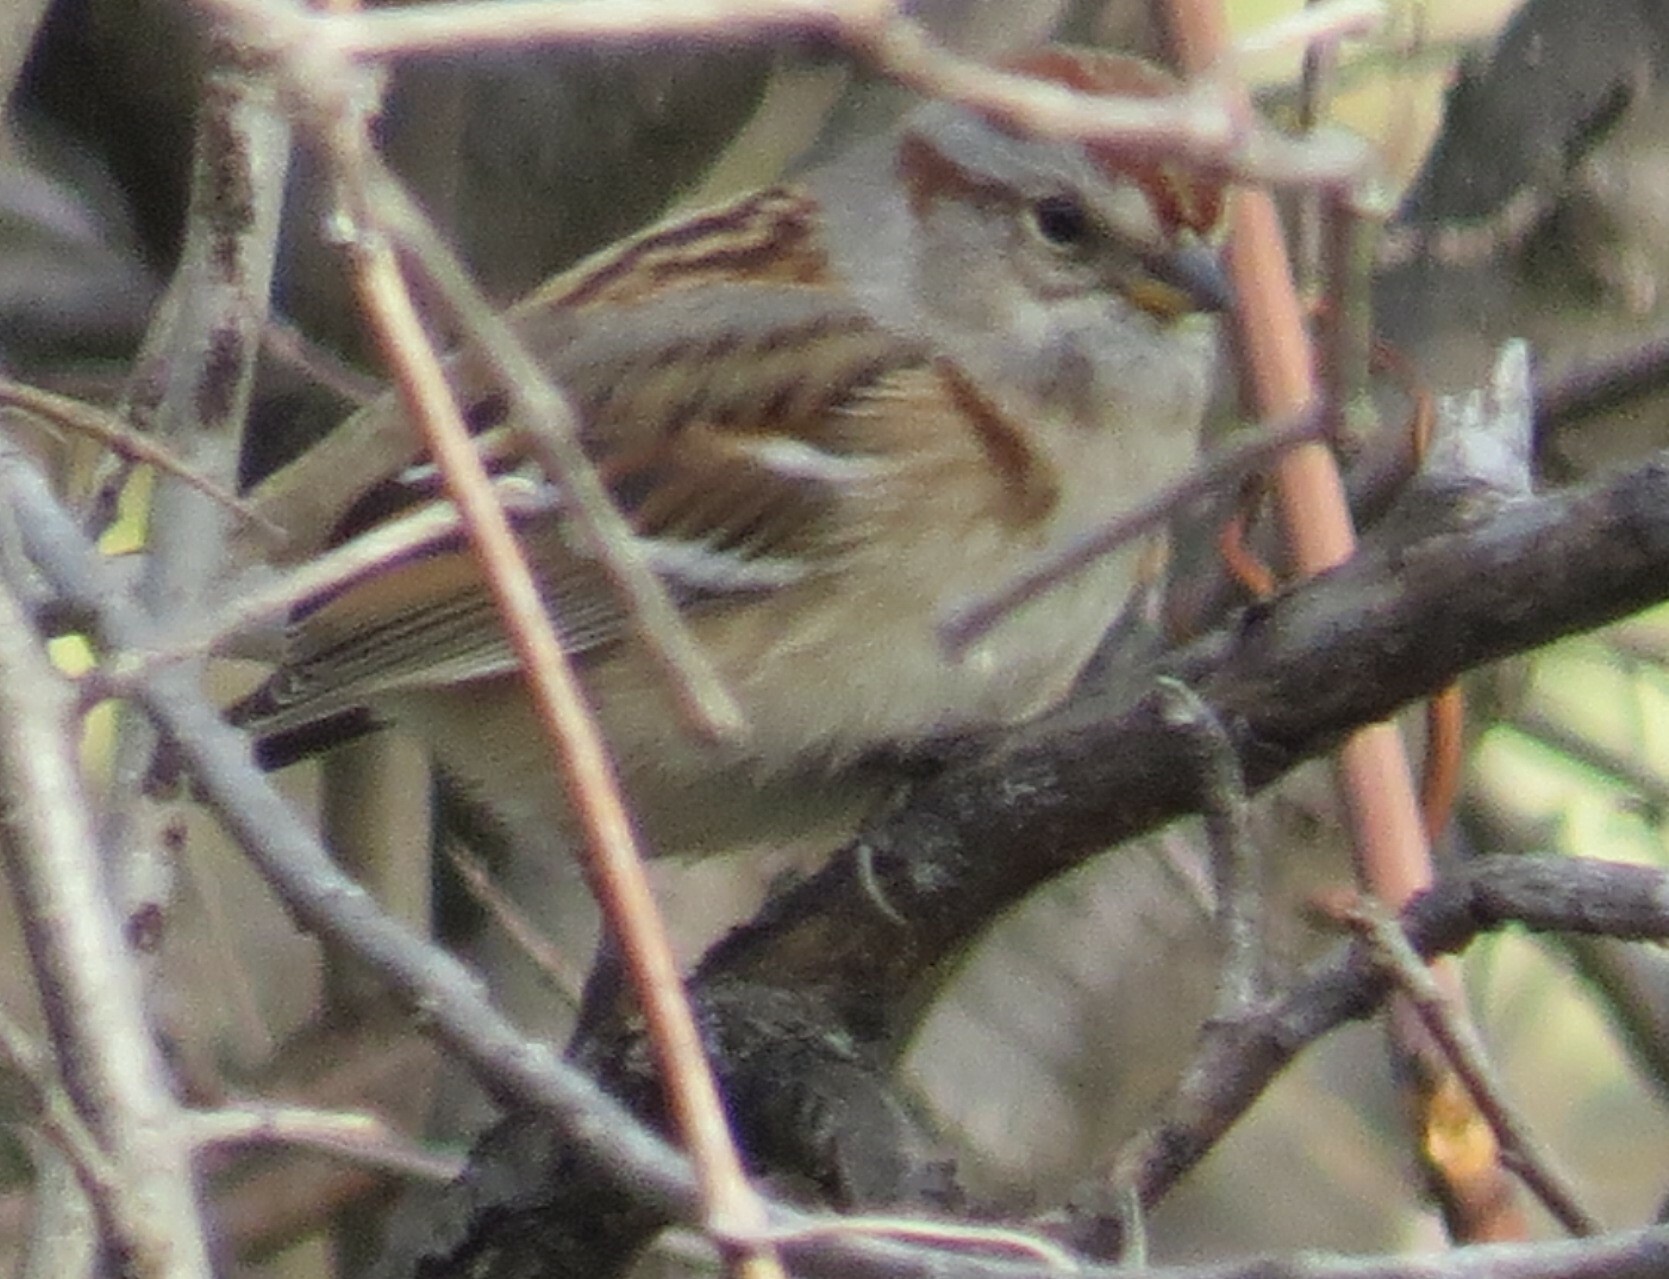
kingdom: Animalia
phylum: Chordata
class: Aves
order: Passeriformes
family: Passerellidae
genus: Spizelloides
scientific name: Spizelloides arborea
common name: American tree sparrow
